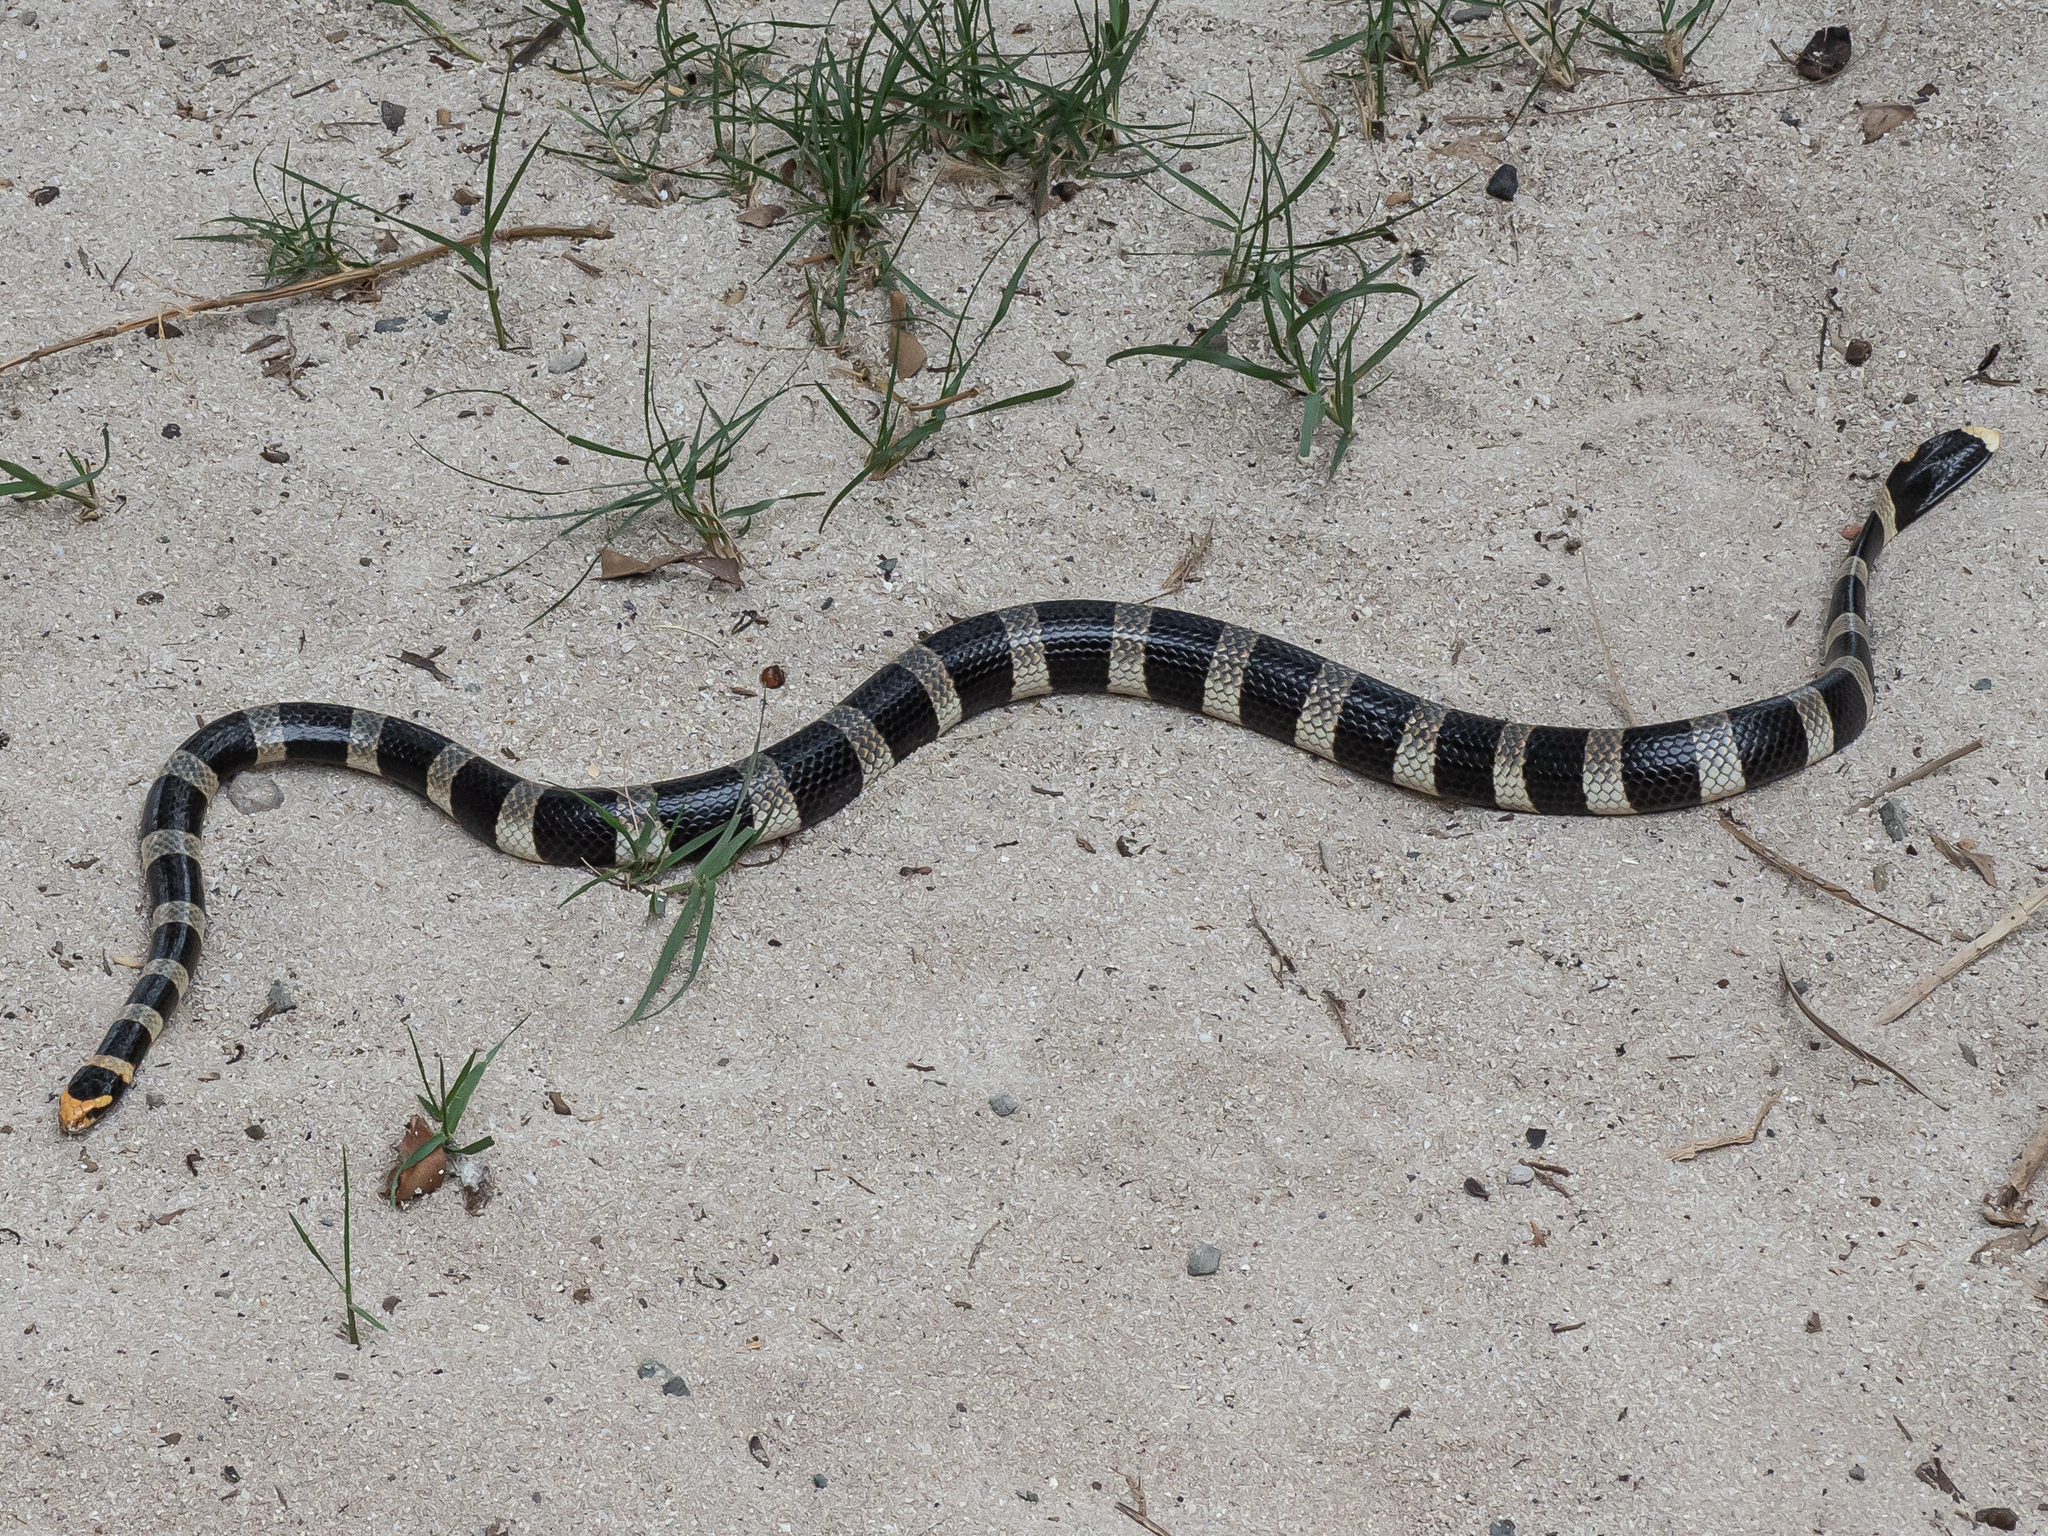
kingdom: Animalia
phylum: Chordata
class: Squamata
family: Elapidae
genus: Laticauda
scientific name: Laticauda saintgironsi
